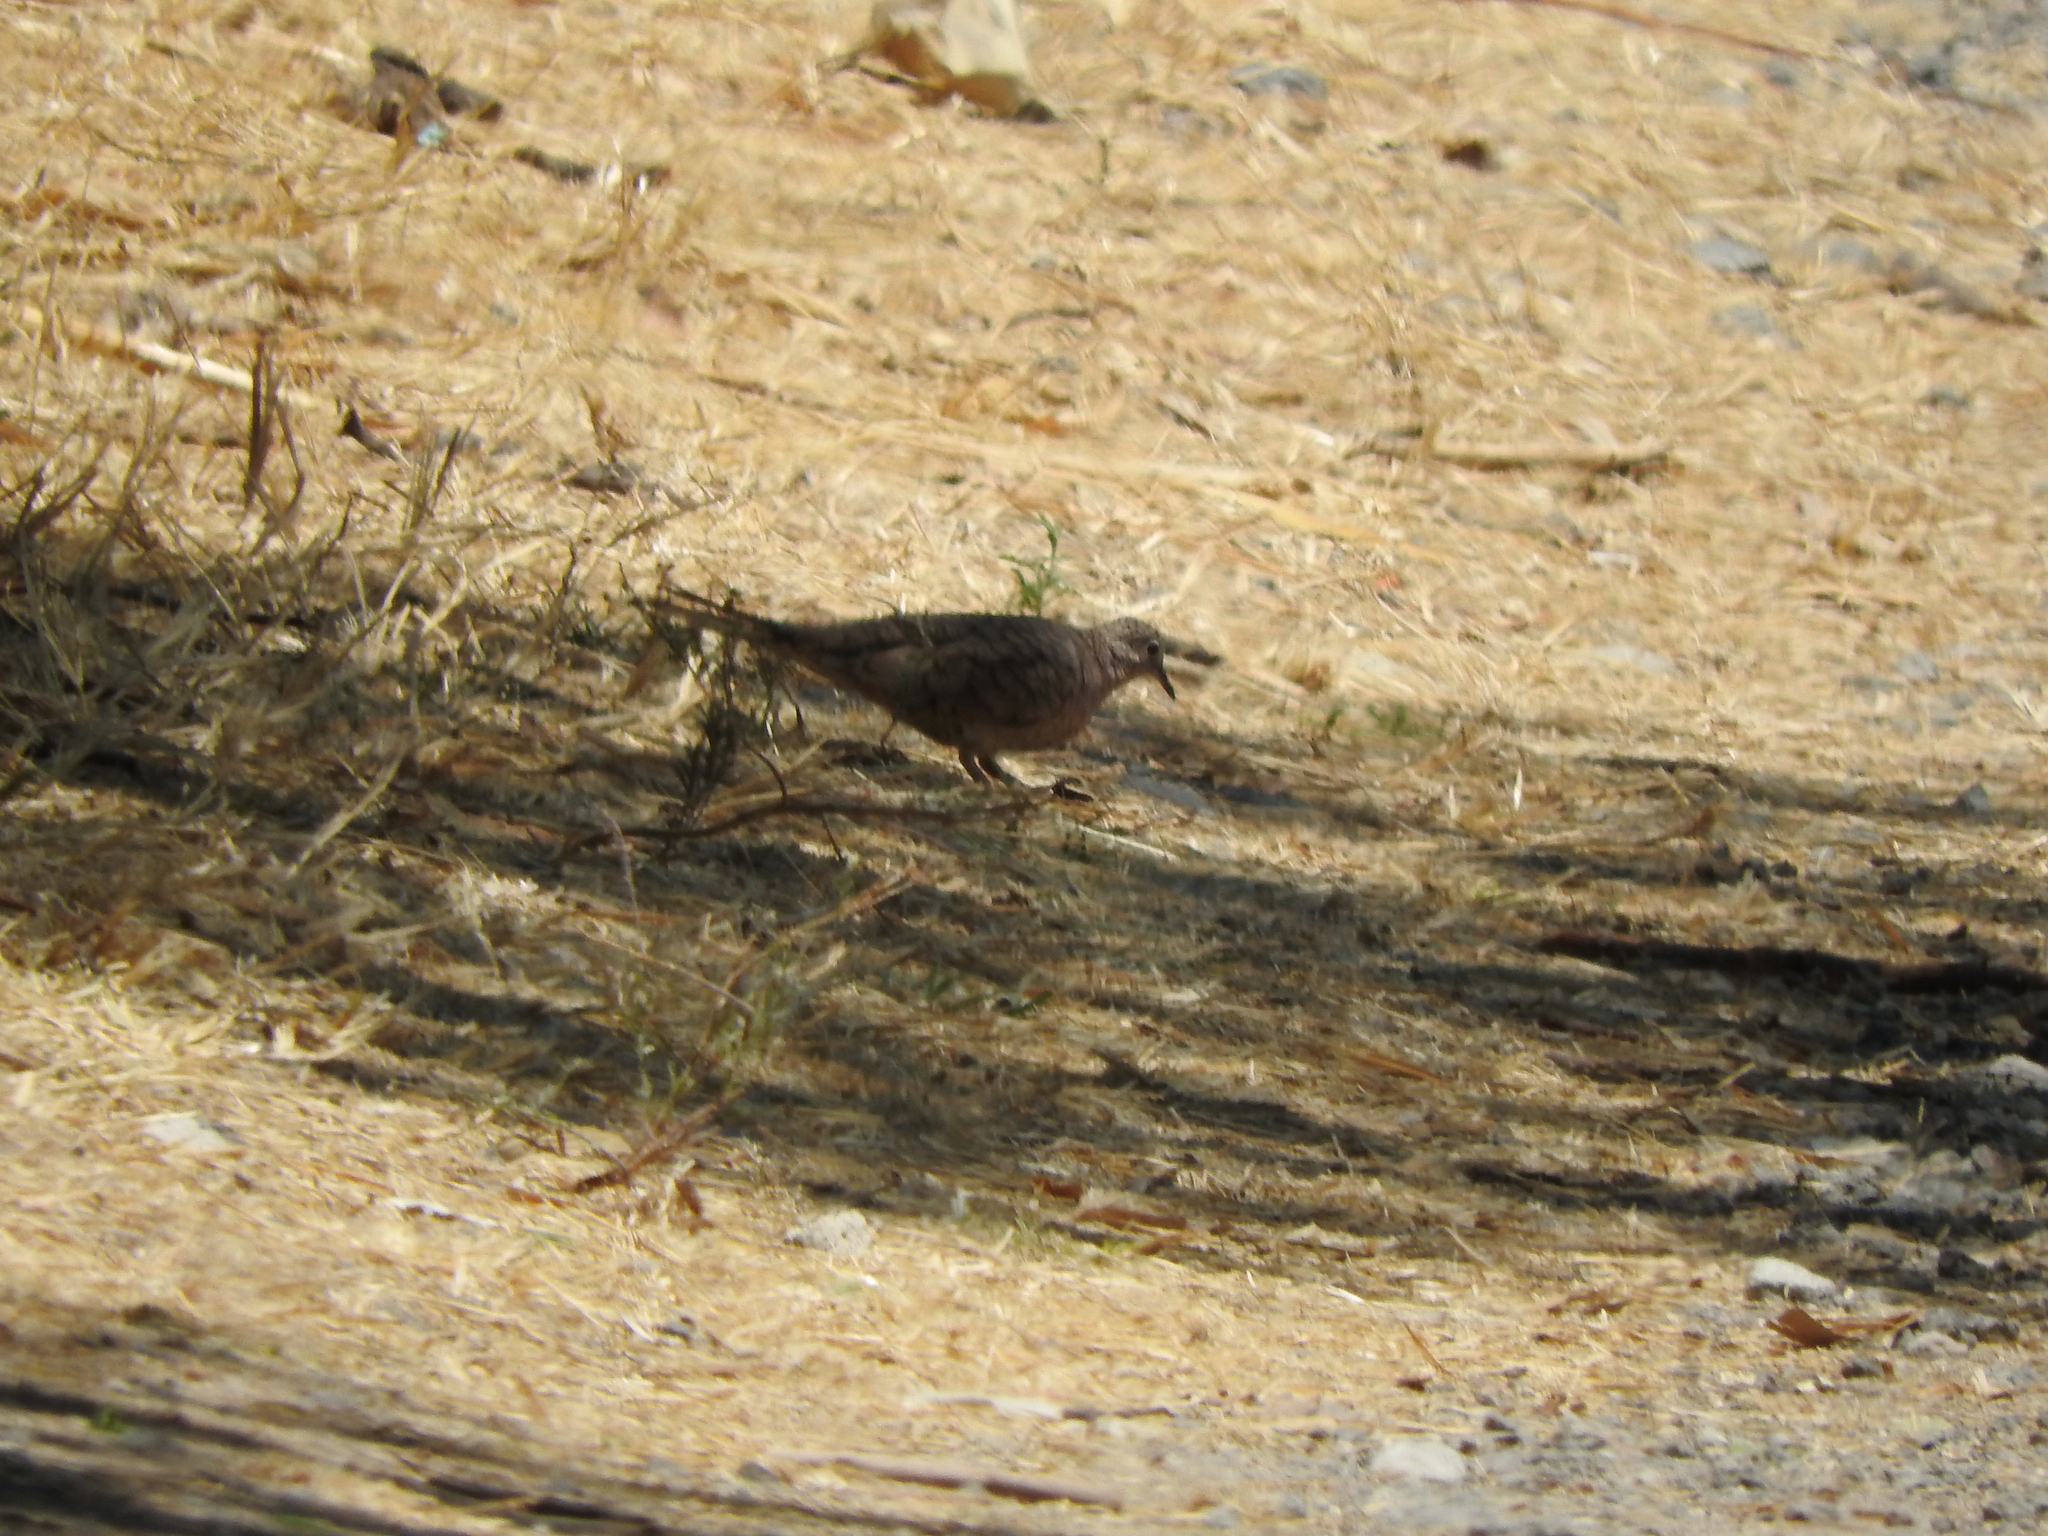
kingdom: Animalia
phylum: Chordata
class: Aves
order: Columbiformes
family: Columbidae
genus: Columbina
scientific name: Columbina inca
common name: Inca dove
